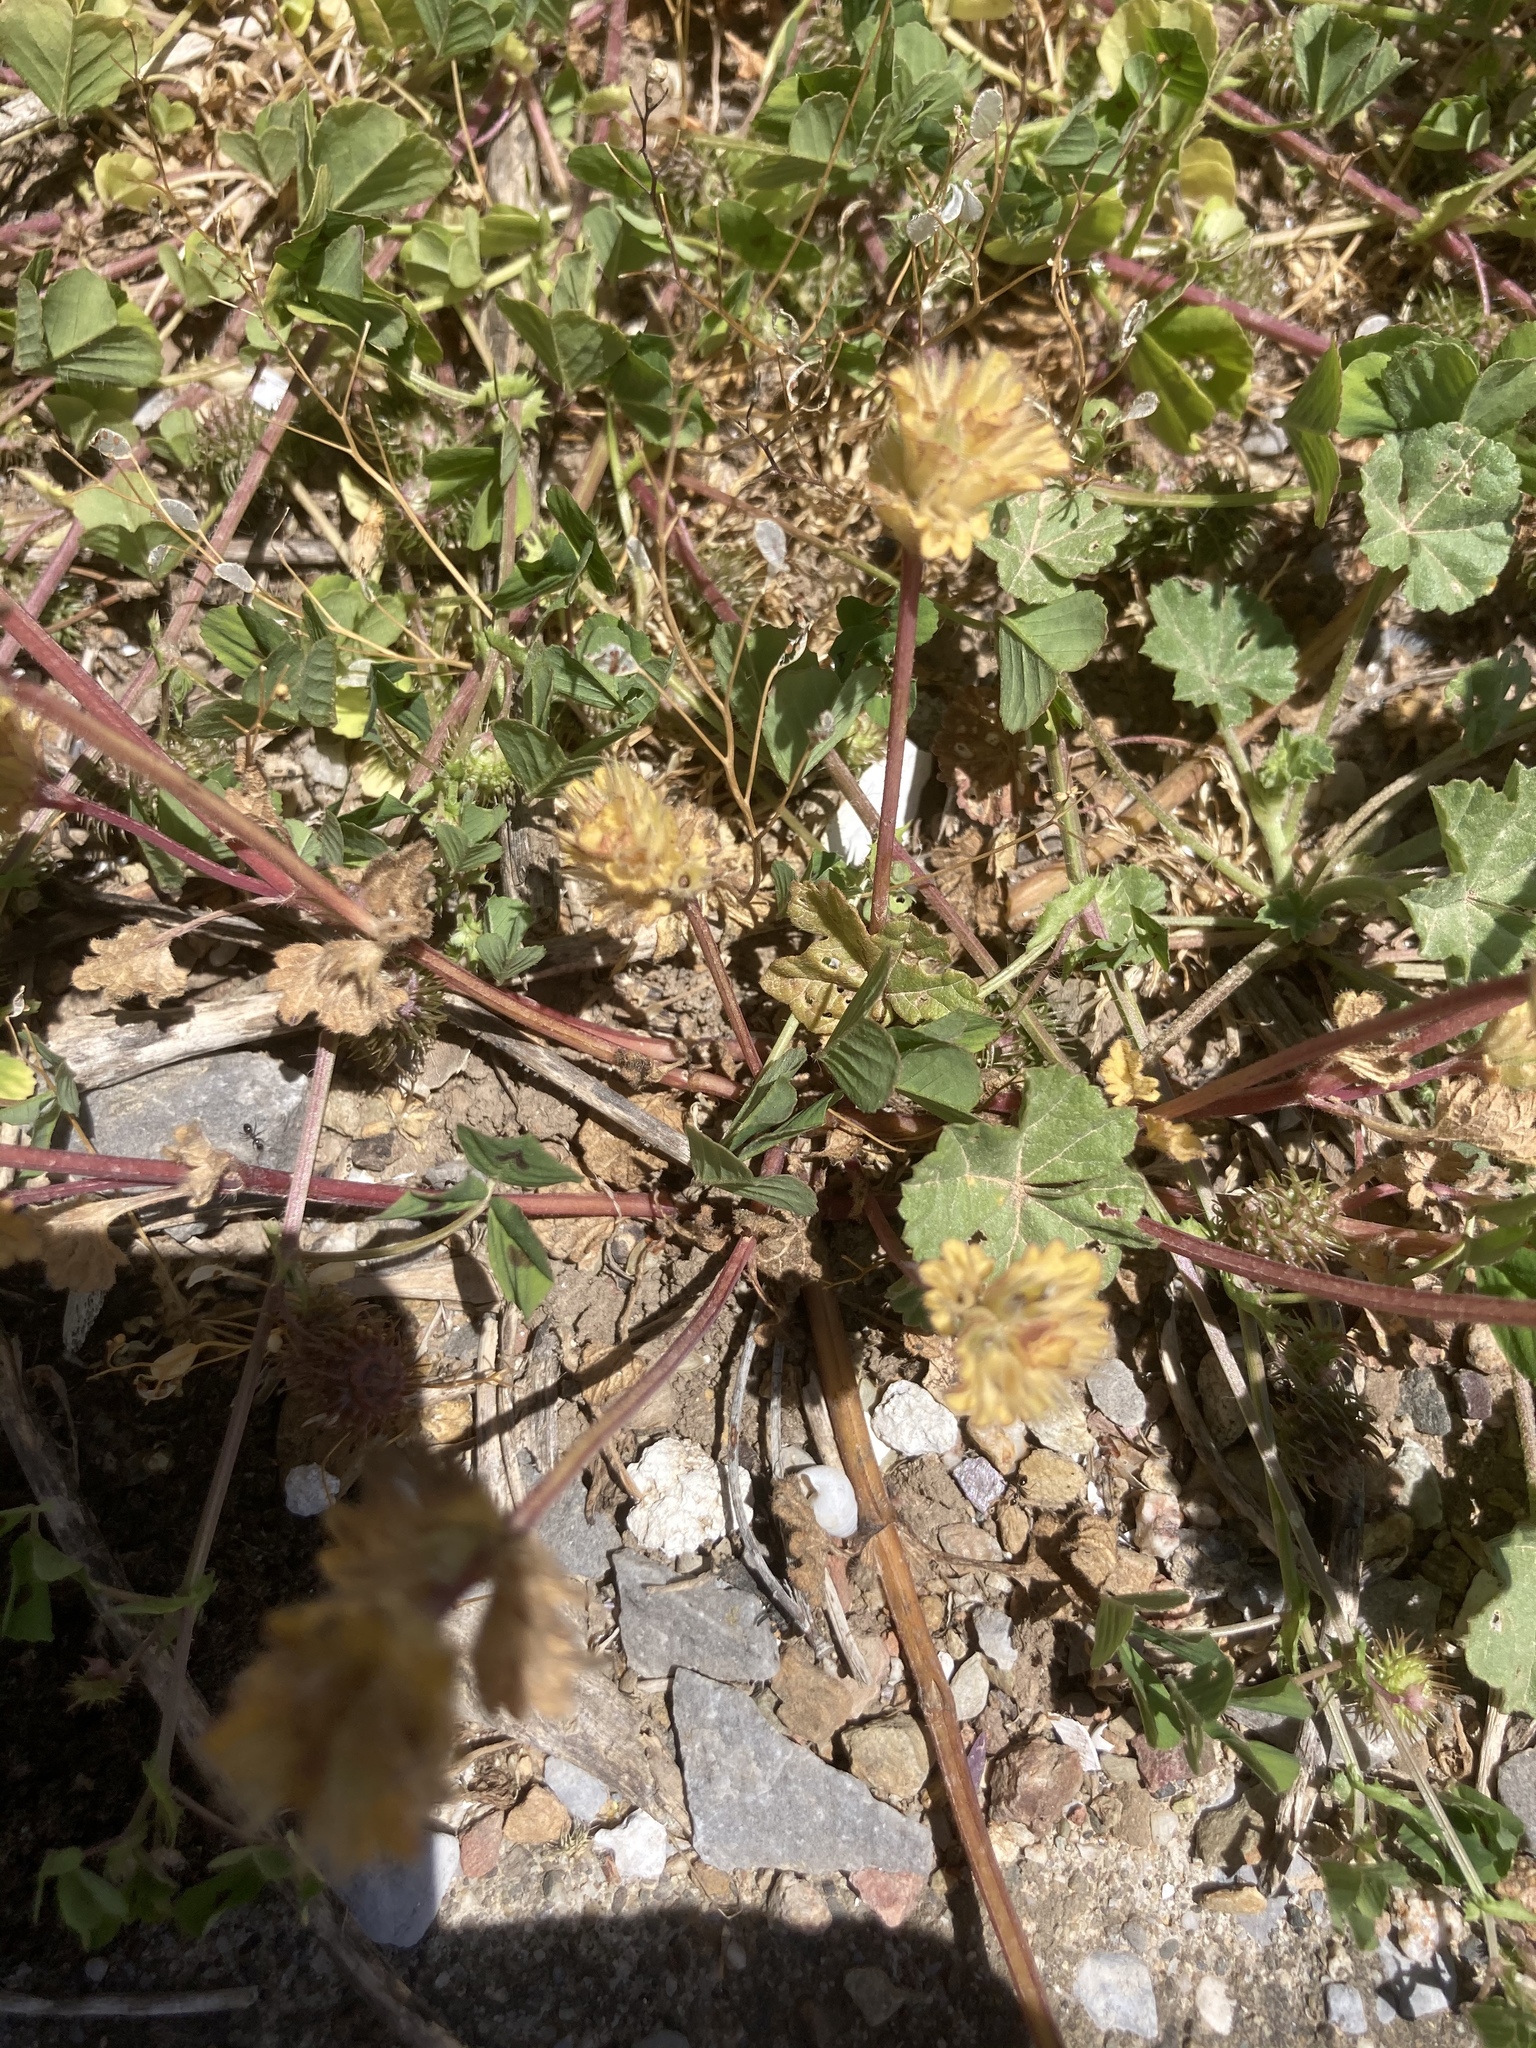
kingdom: Plantae
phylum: Tracheophyta
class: Magnoliopsida
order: Lamiales
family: Lamiaceae
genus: Lamium
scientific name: Lamium amplexicaule
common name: Henbit dead-nettle
